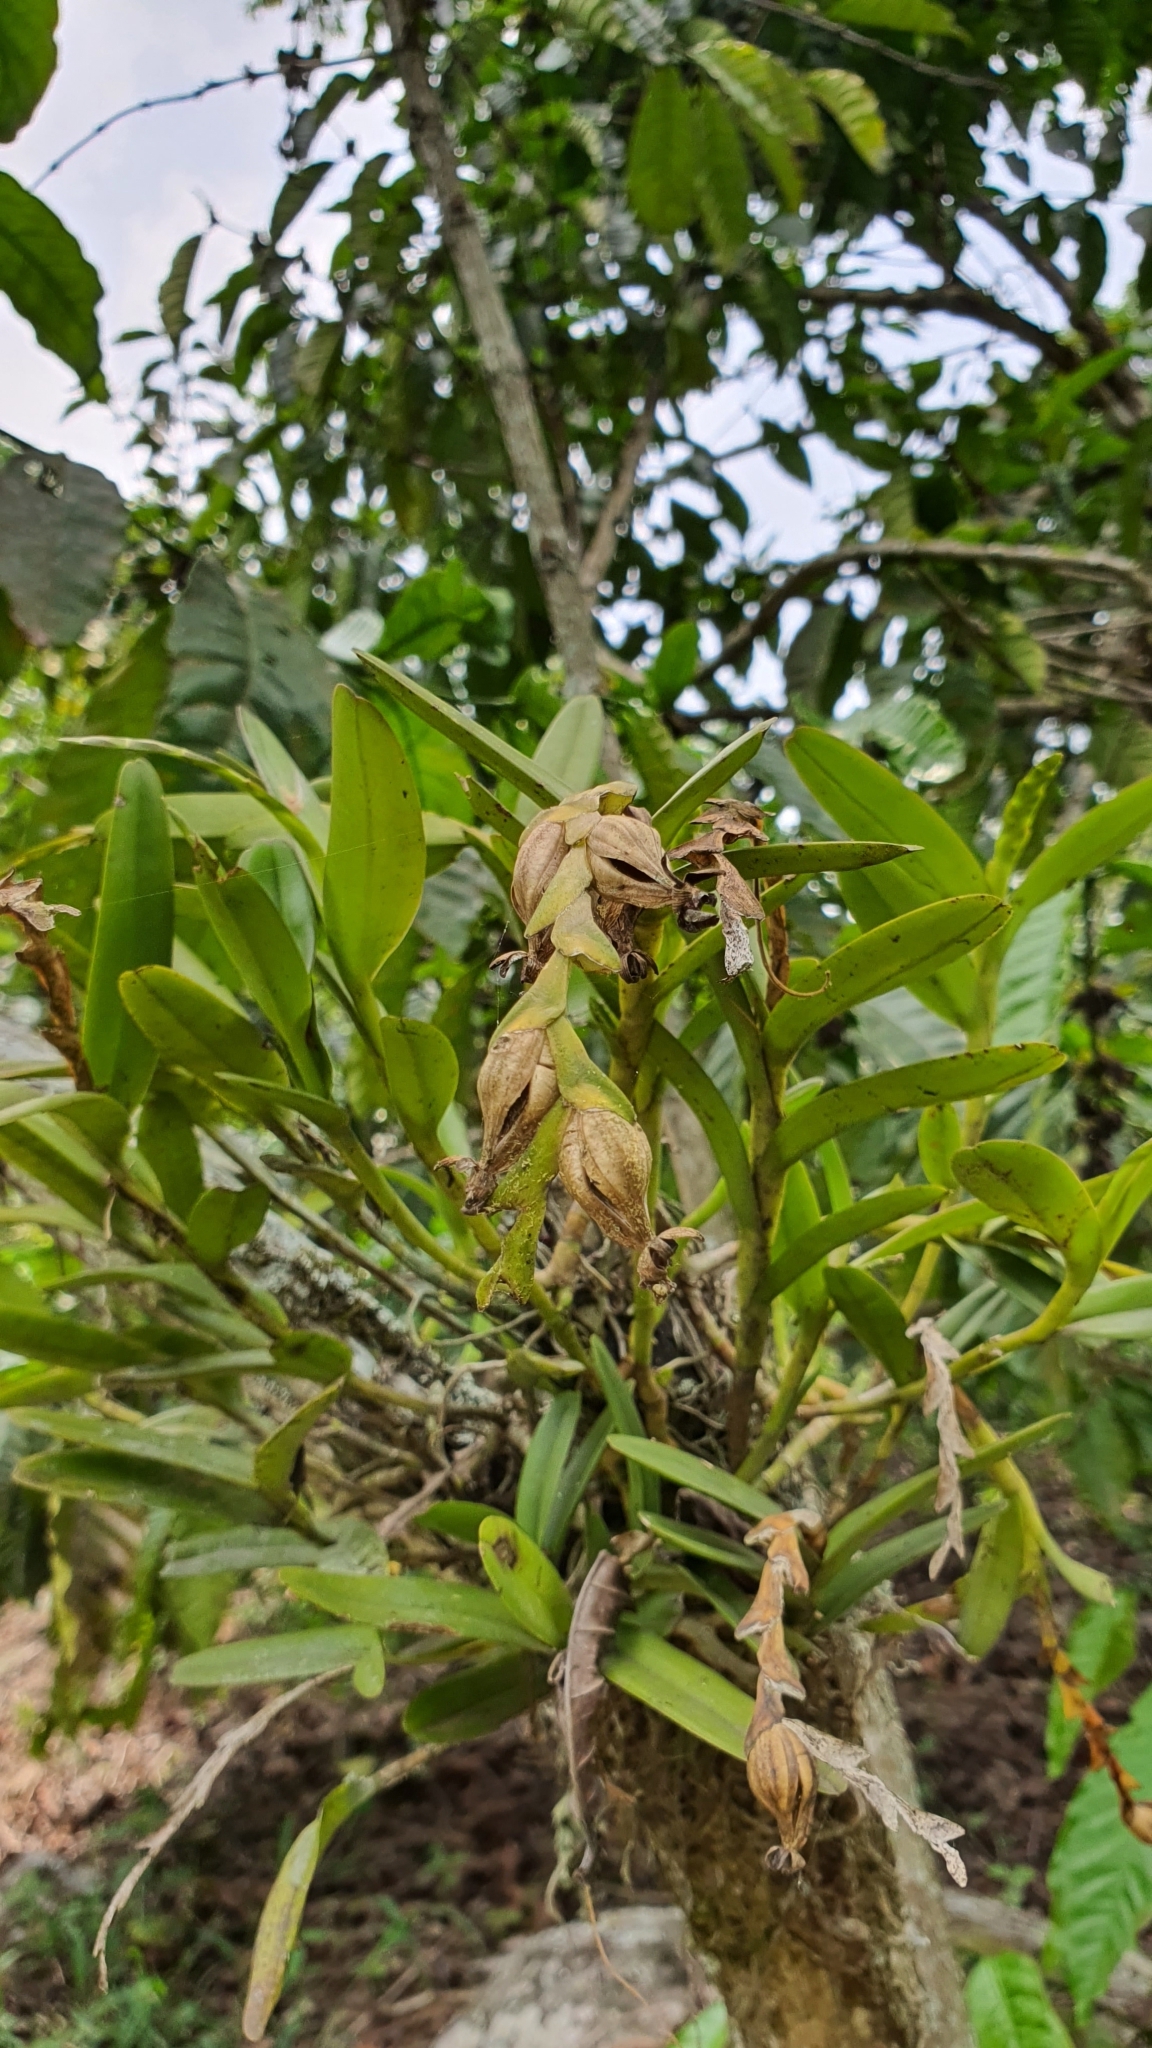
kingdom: Plantae
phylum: Tracheophyta
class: Liliopsida
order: Asparagales
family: Orchidaceae
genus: Epidendrum
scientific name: Epidendrum cardiophorum
